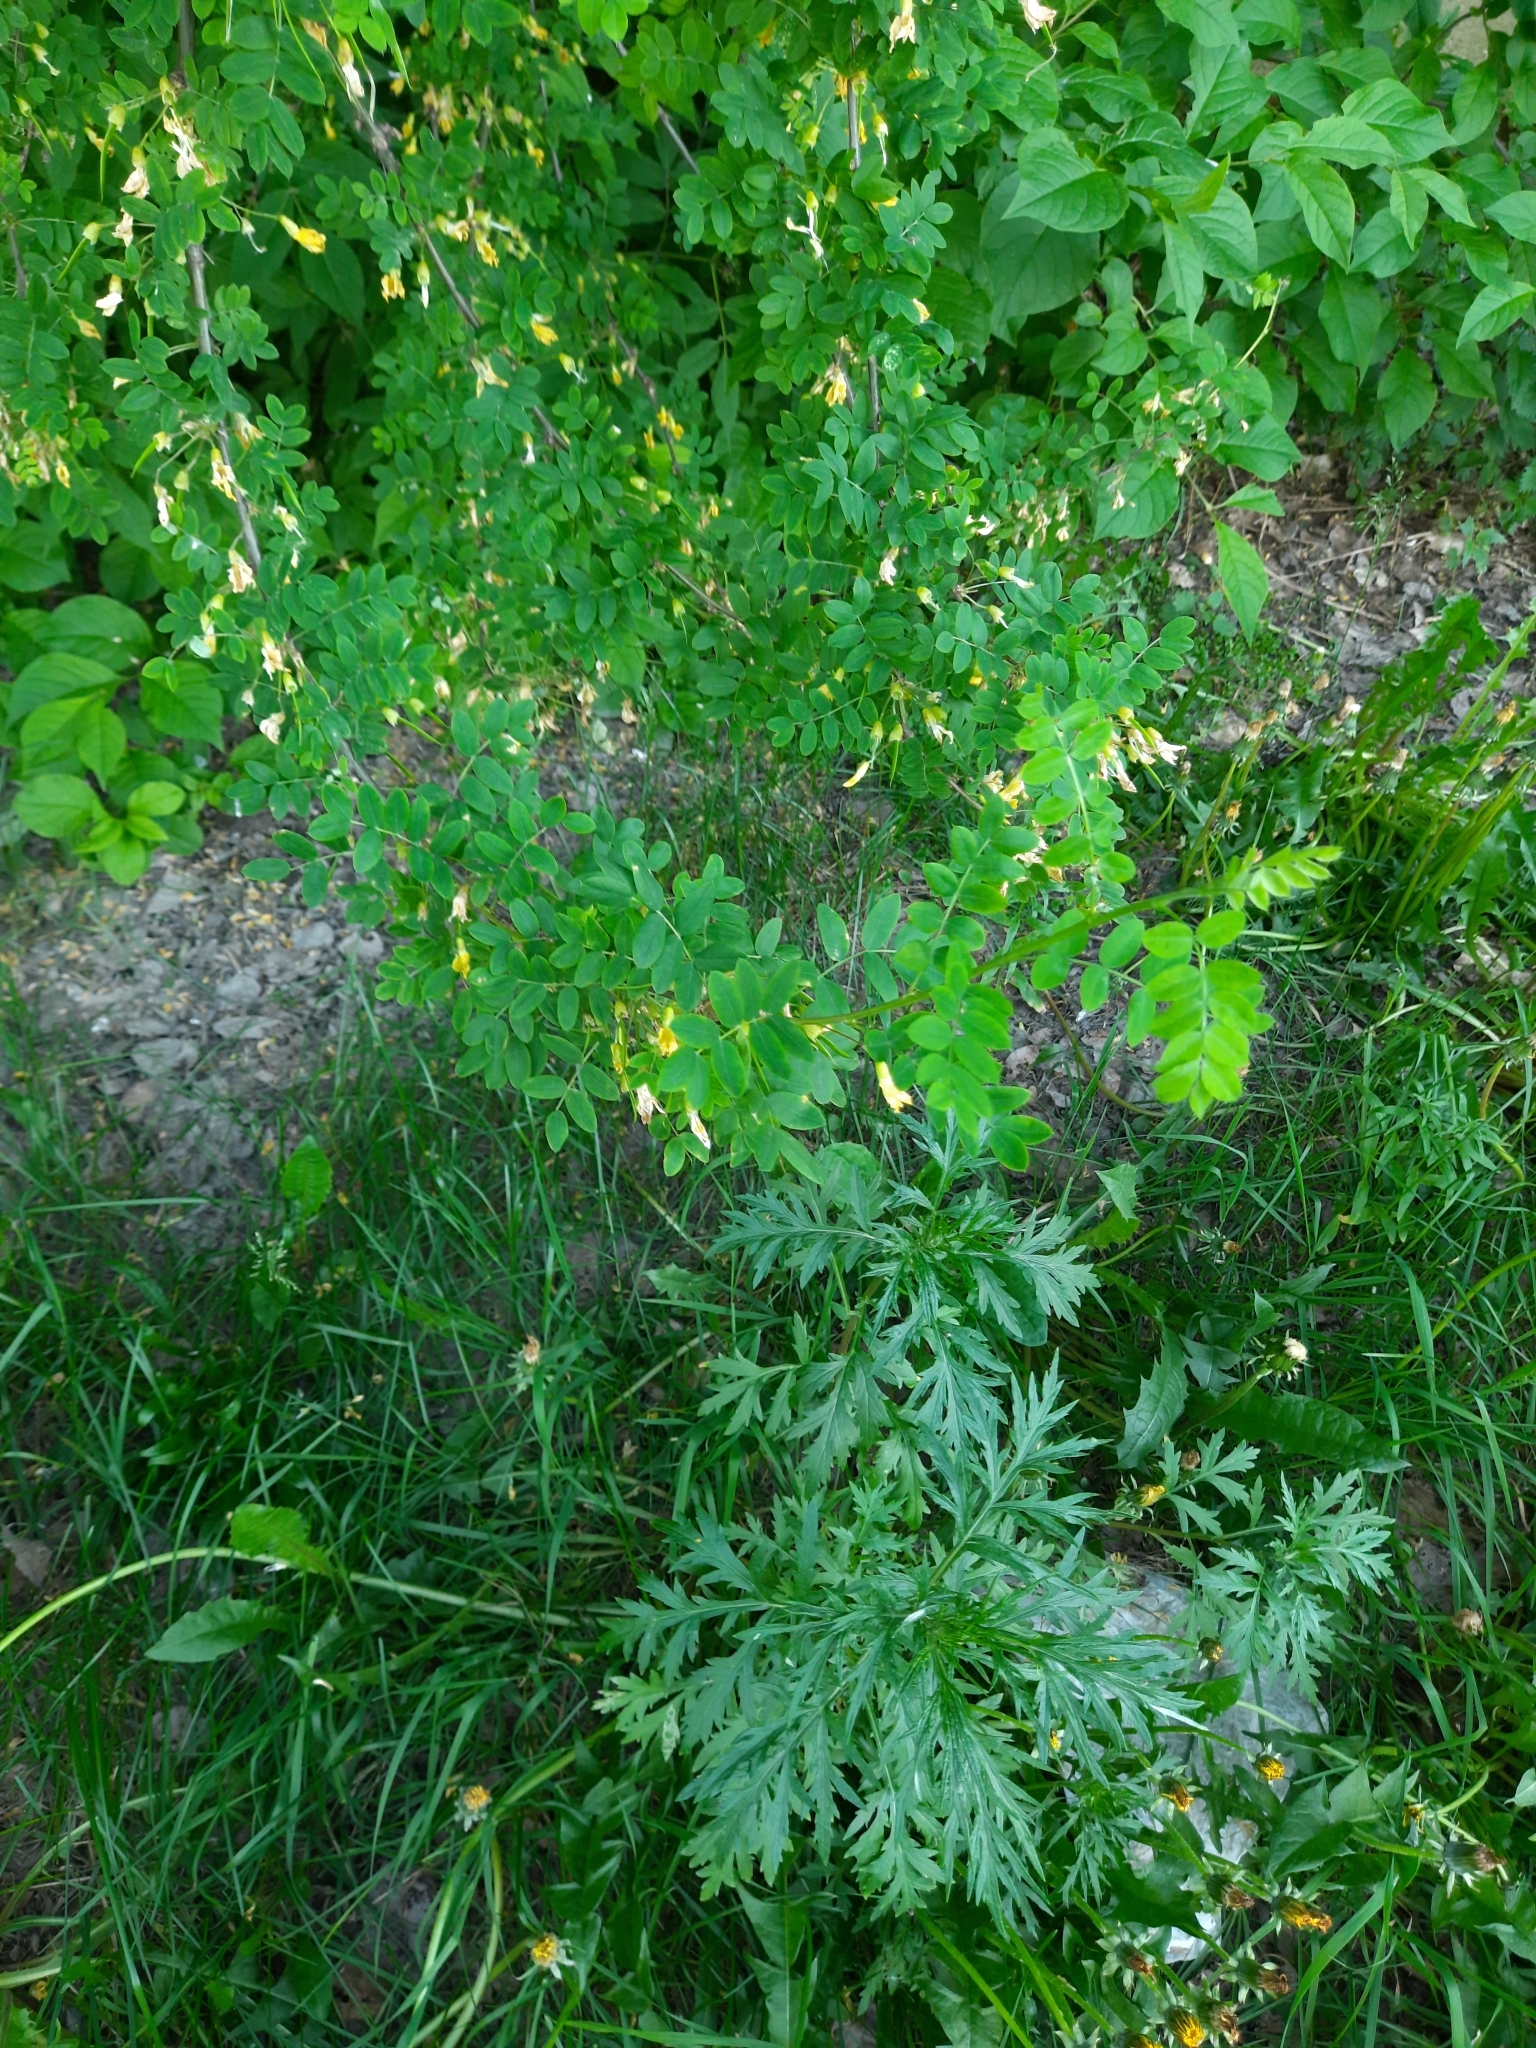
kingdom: Plantae
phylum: Tracheophyta
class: Magnoliopsida
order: Fabales
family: Fabaceae
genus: Caragana
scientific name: Caragana arborescens
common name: Siberian peashrub
